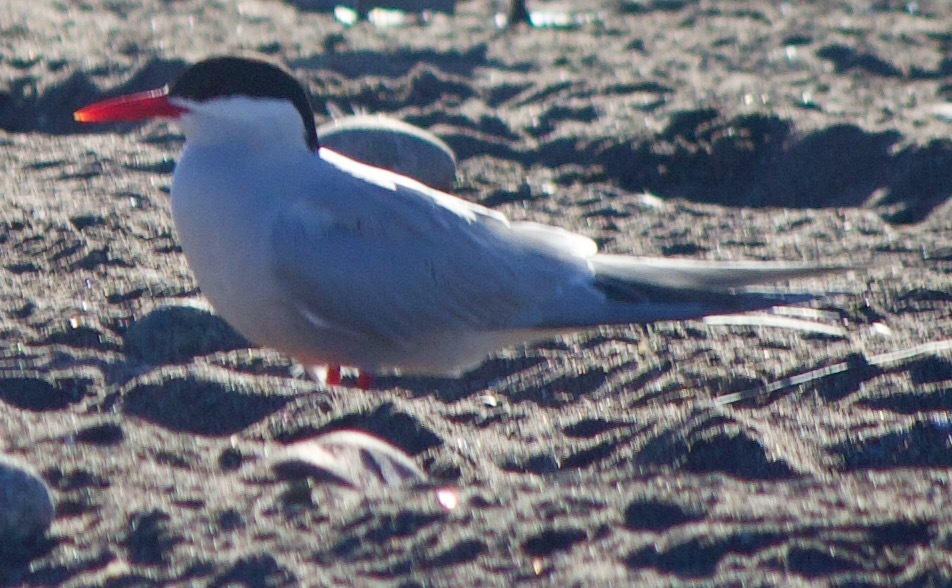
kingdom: Animalia
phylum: Chordata
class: Aves
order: Charadriiformes
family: Laridae
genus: Sterna
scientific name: Sterna hirundinacea
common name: South american tern
